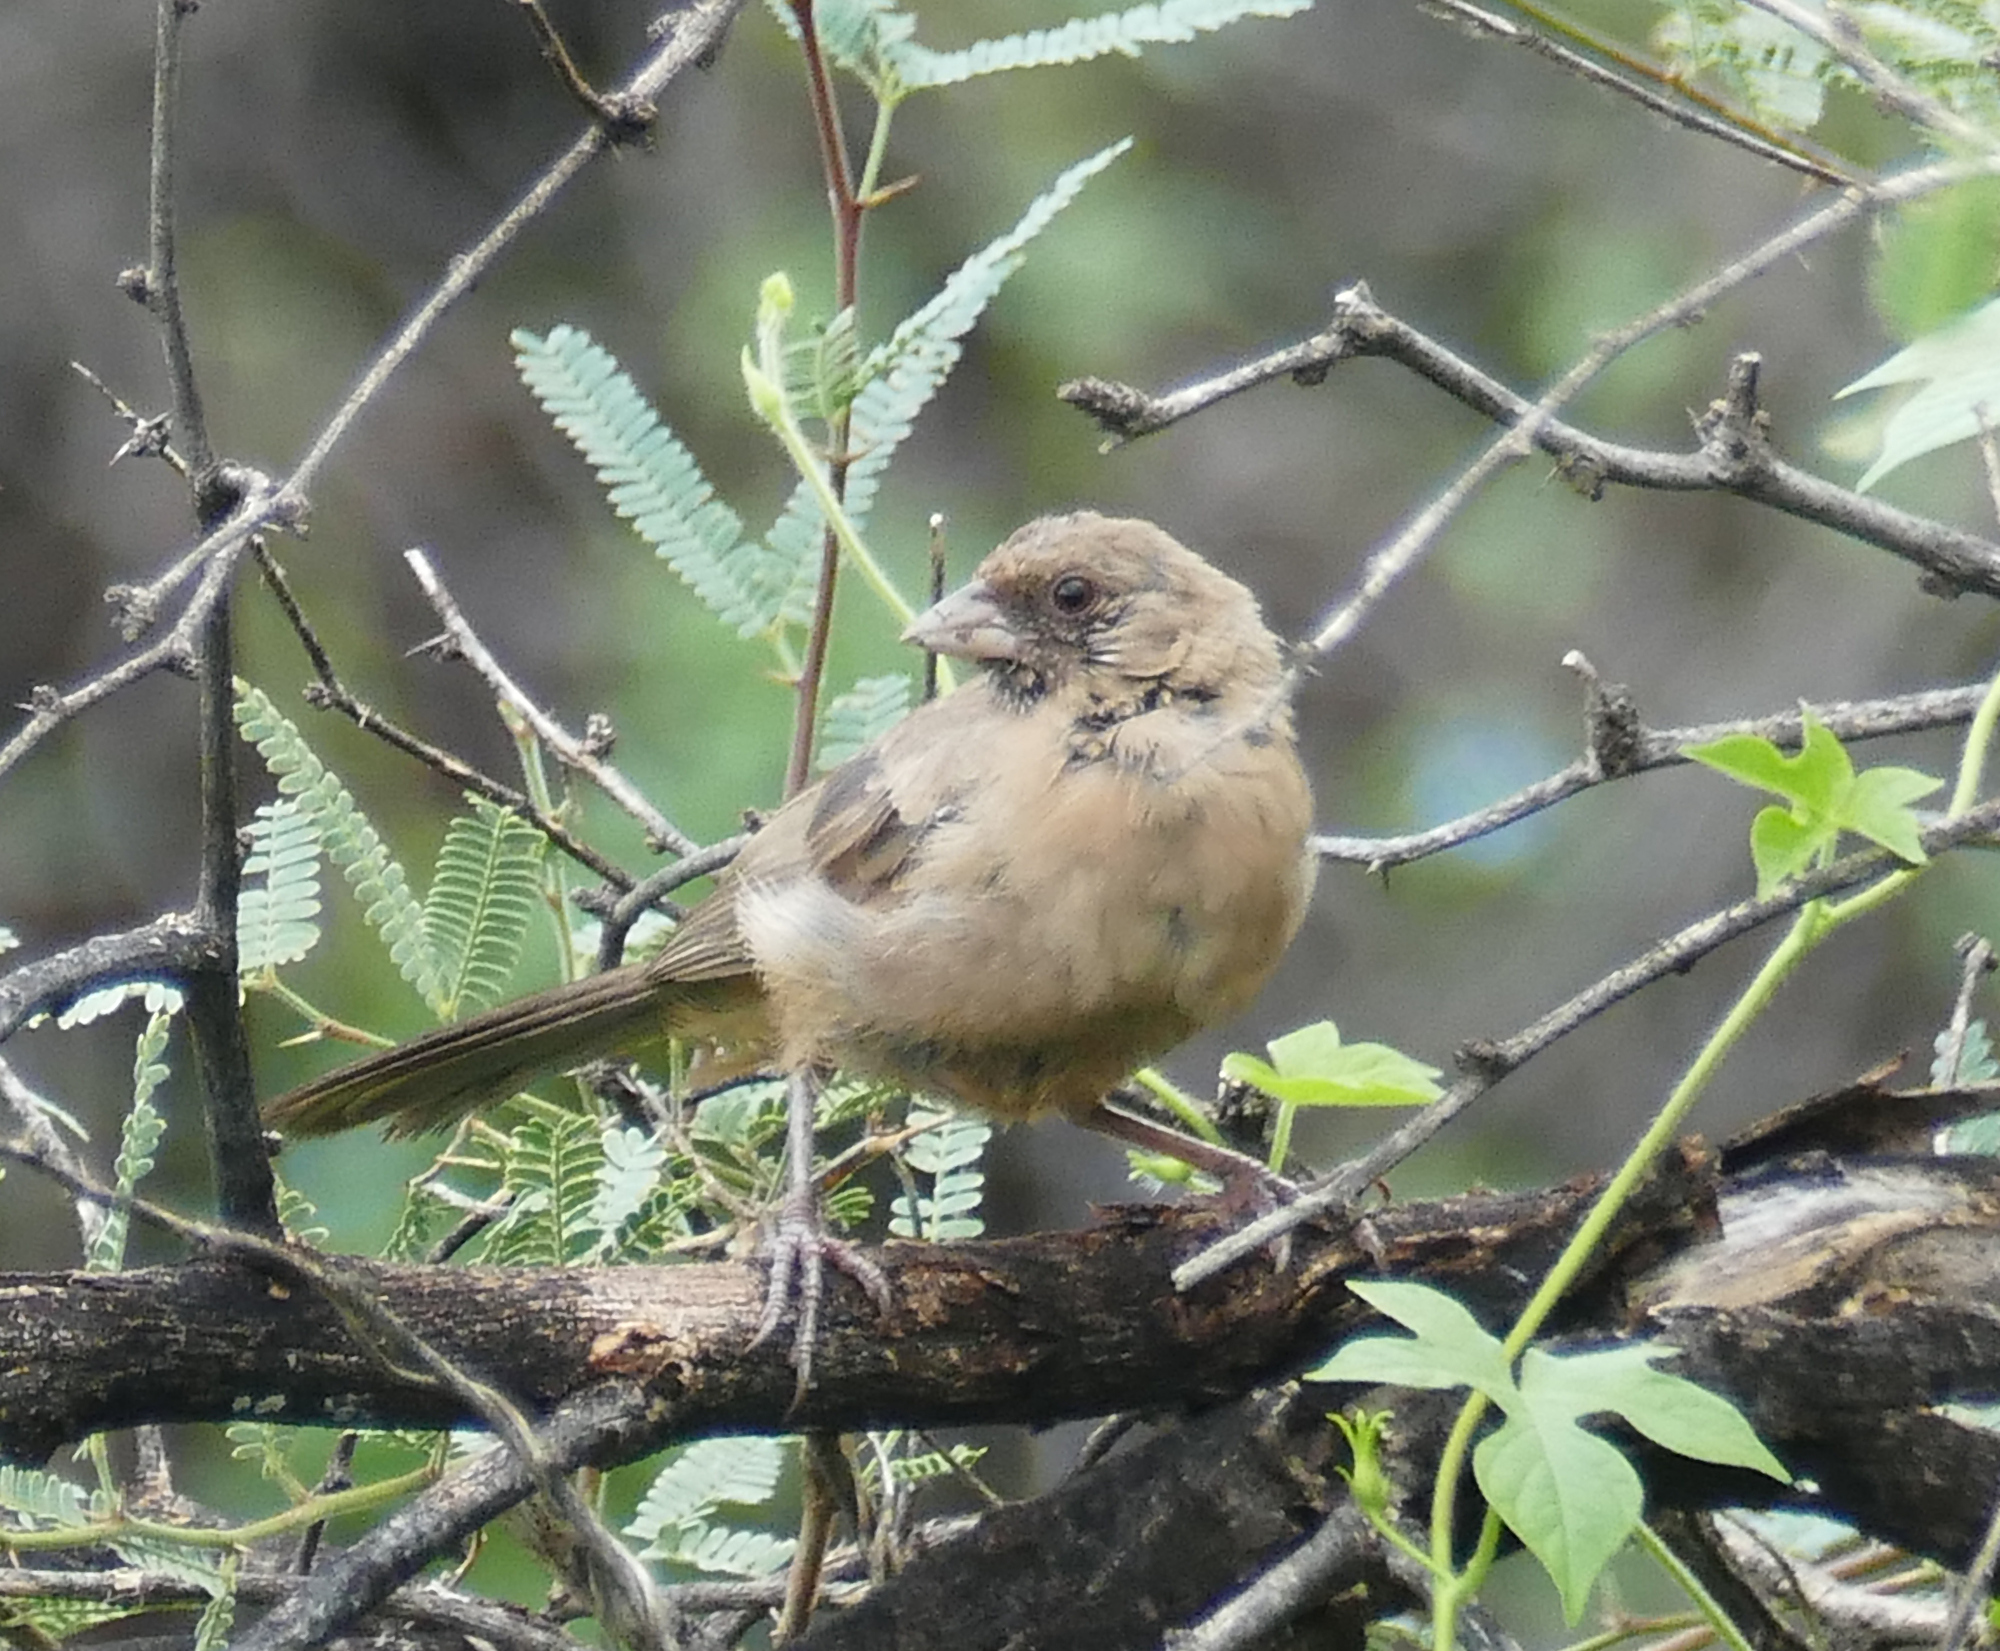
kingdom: Animalia
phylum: Chordata
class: Aves
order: Passeriformes
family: Passerellidae
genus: Melozone
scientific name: Melozone aberti
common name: Abert's towhee
